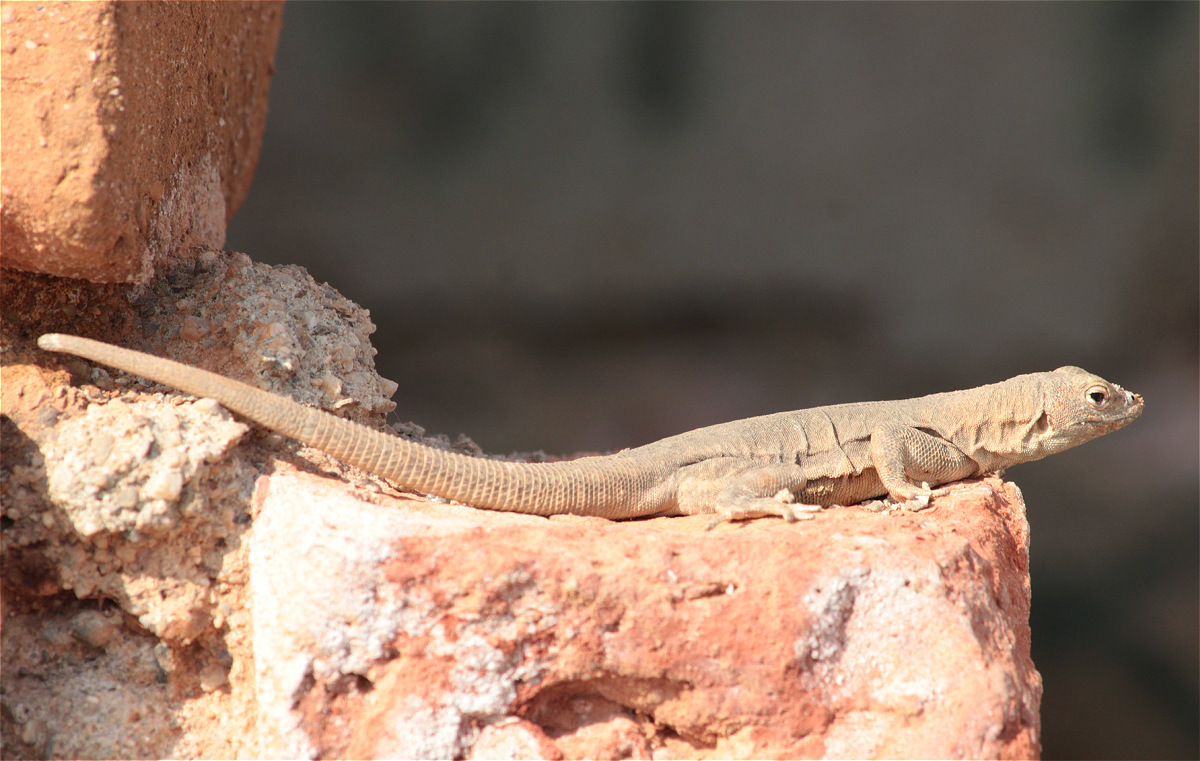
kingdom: Animalia
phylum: Chordata
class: Squamata
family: Tropiduridae
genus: Microlophus
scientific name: Microlophus peruvianus
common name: Peru pacific iguana
